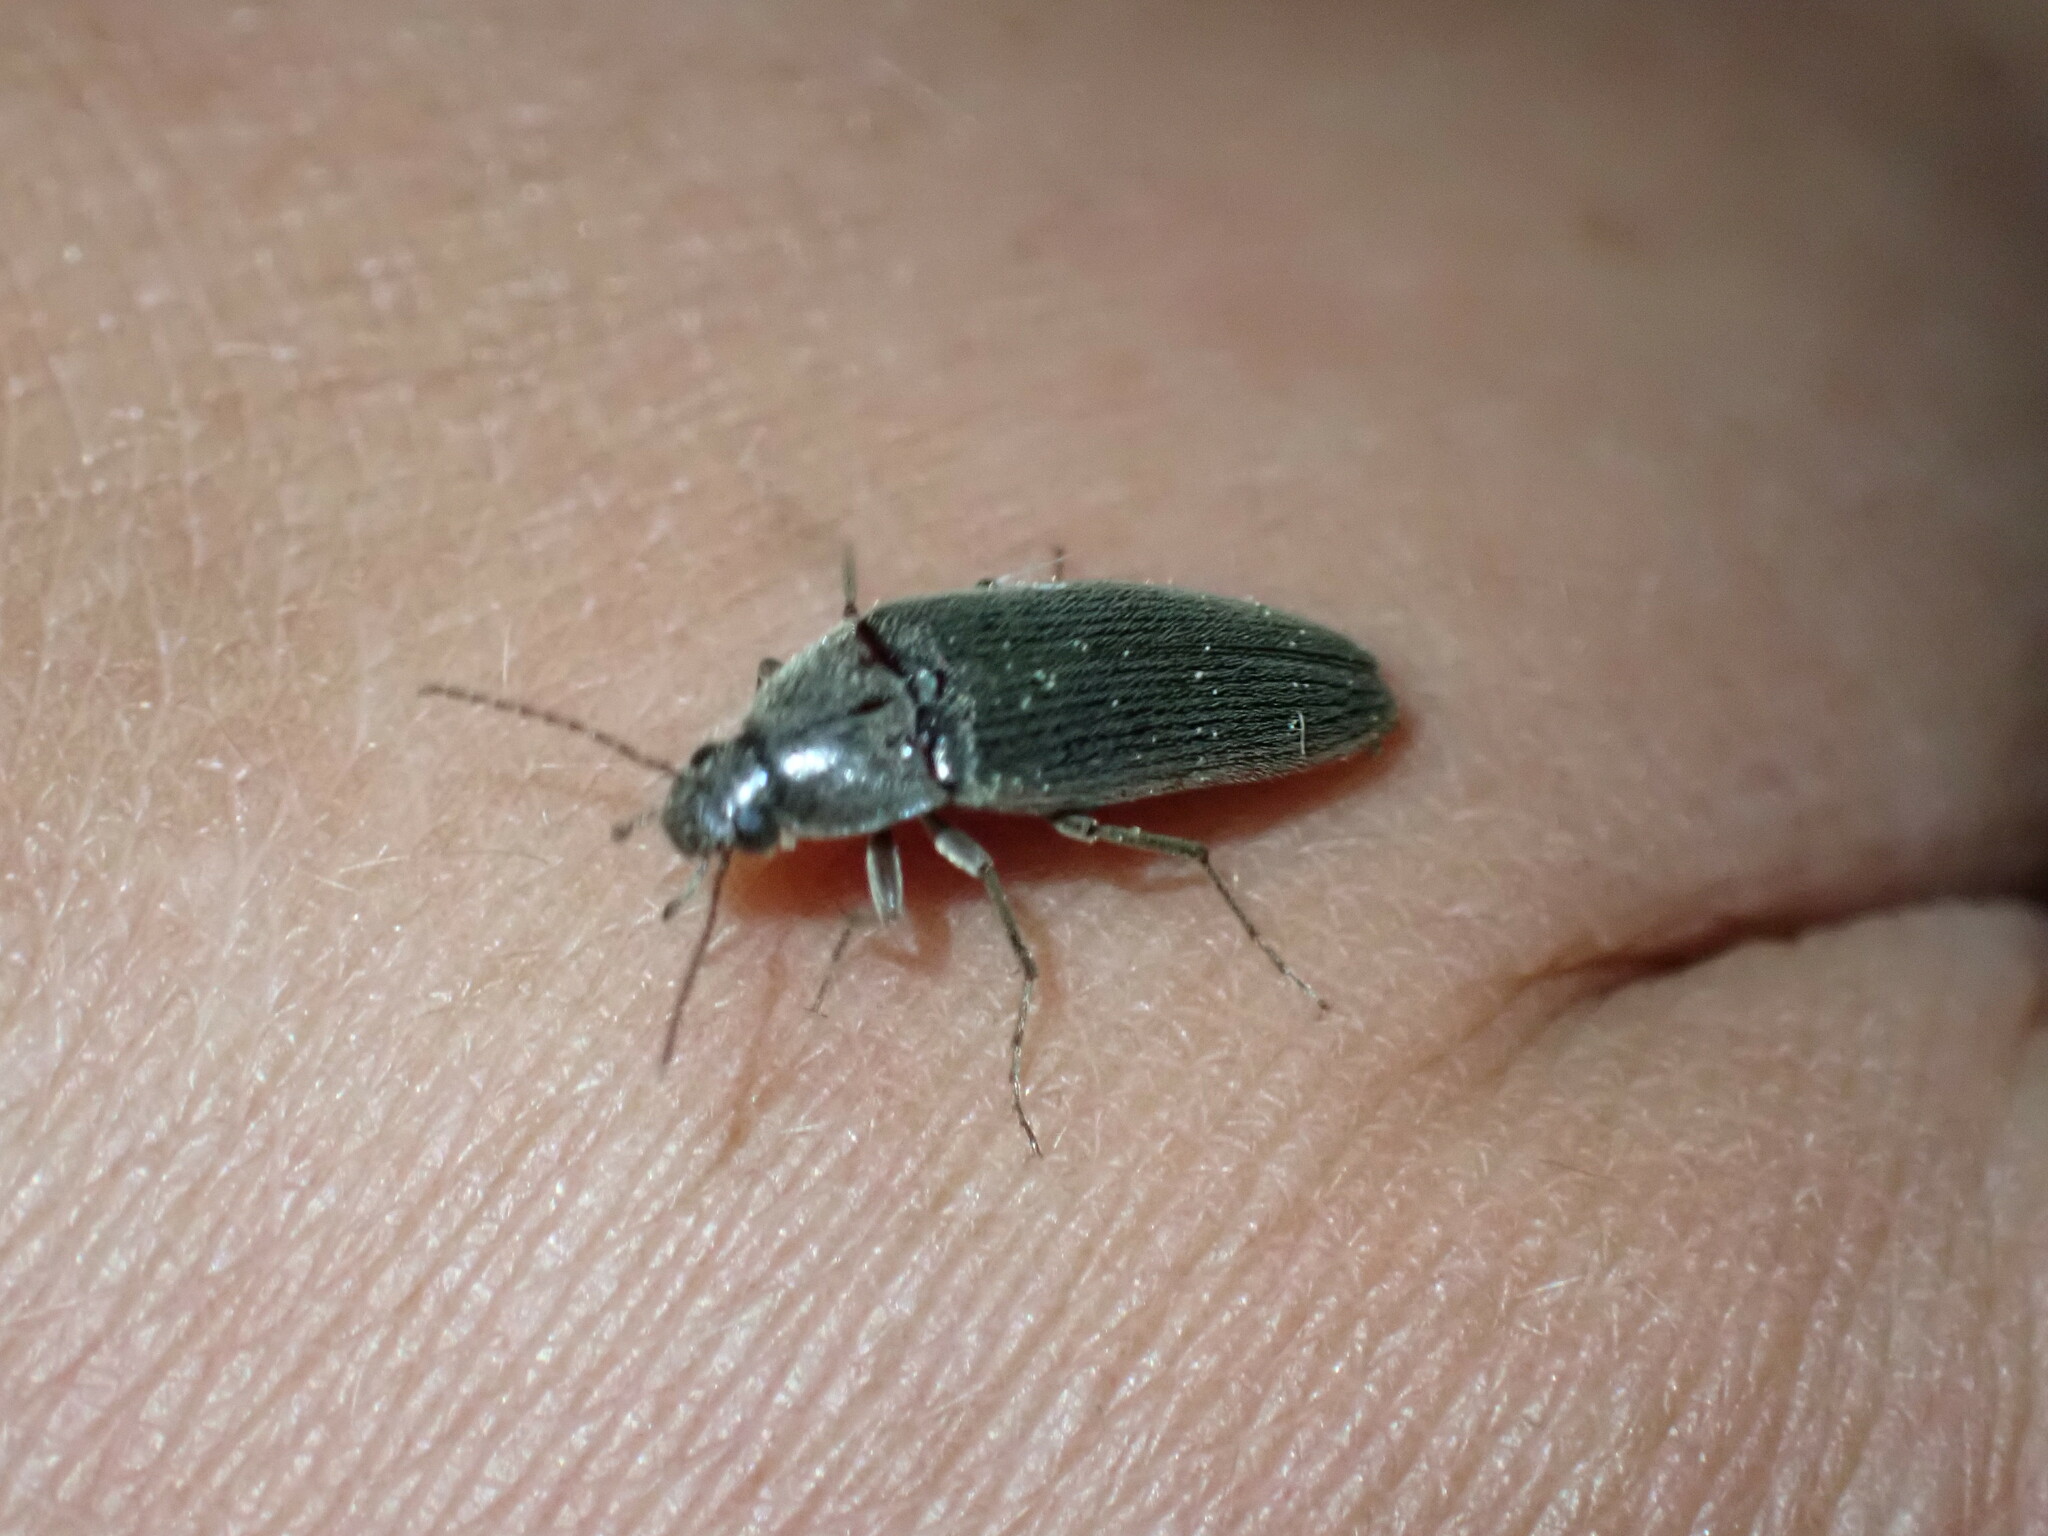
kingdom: Animalia
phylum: Arthropoda
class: Insecta
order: Coleoptera
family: Synchroidae
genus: Synchroa
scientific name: Synchroa punctata
